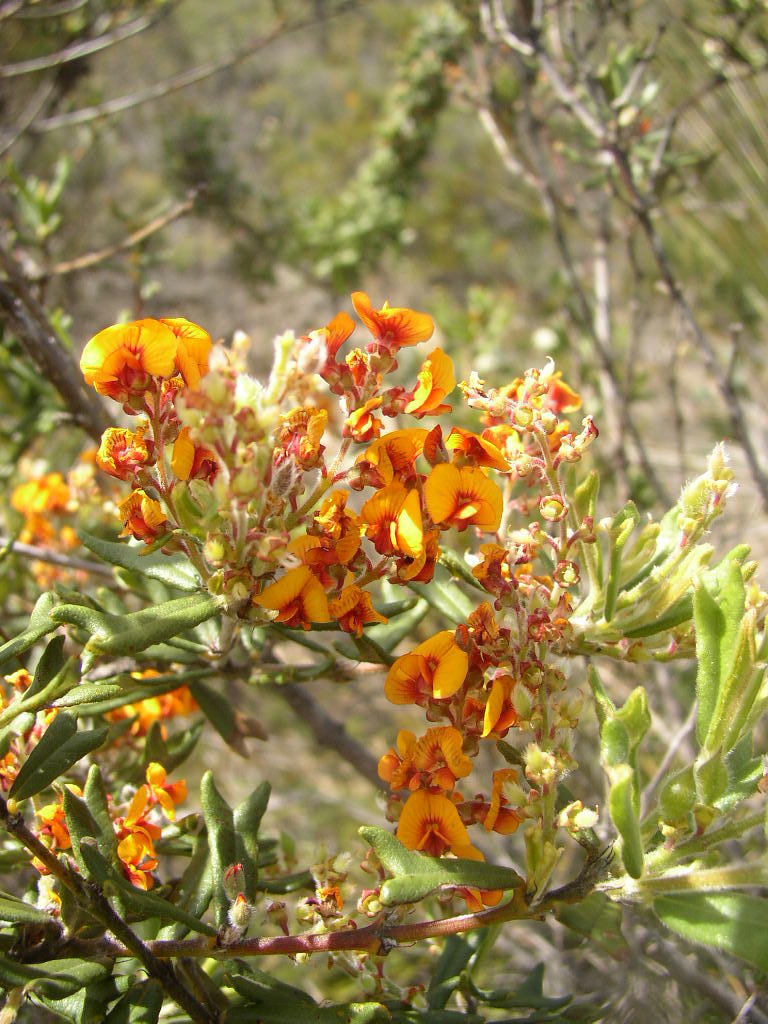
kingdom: Plantae
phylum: Tracheophyta
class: Magnoliopsida
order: Fabales
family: Fabaceae
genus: Gastrolobium
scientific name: Gastrolobium polystachyum
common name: Hill river poison
